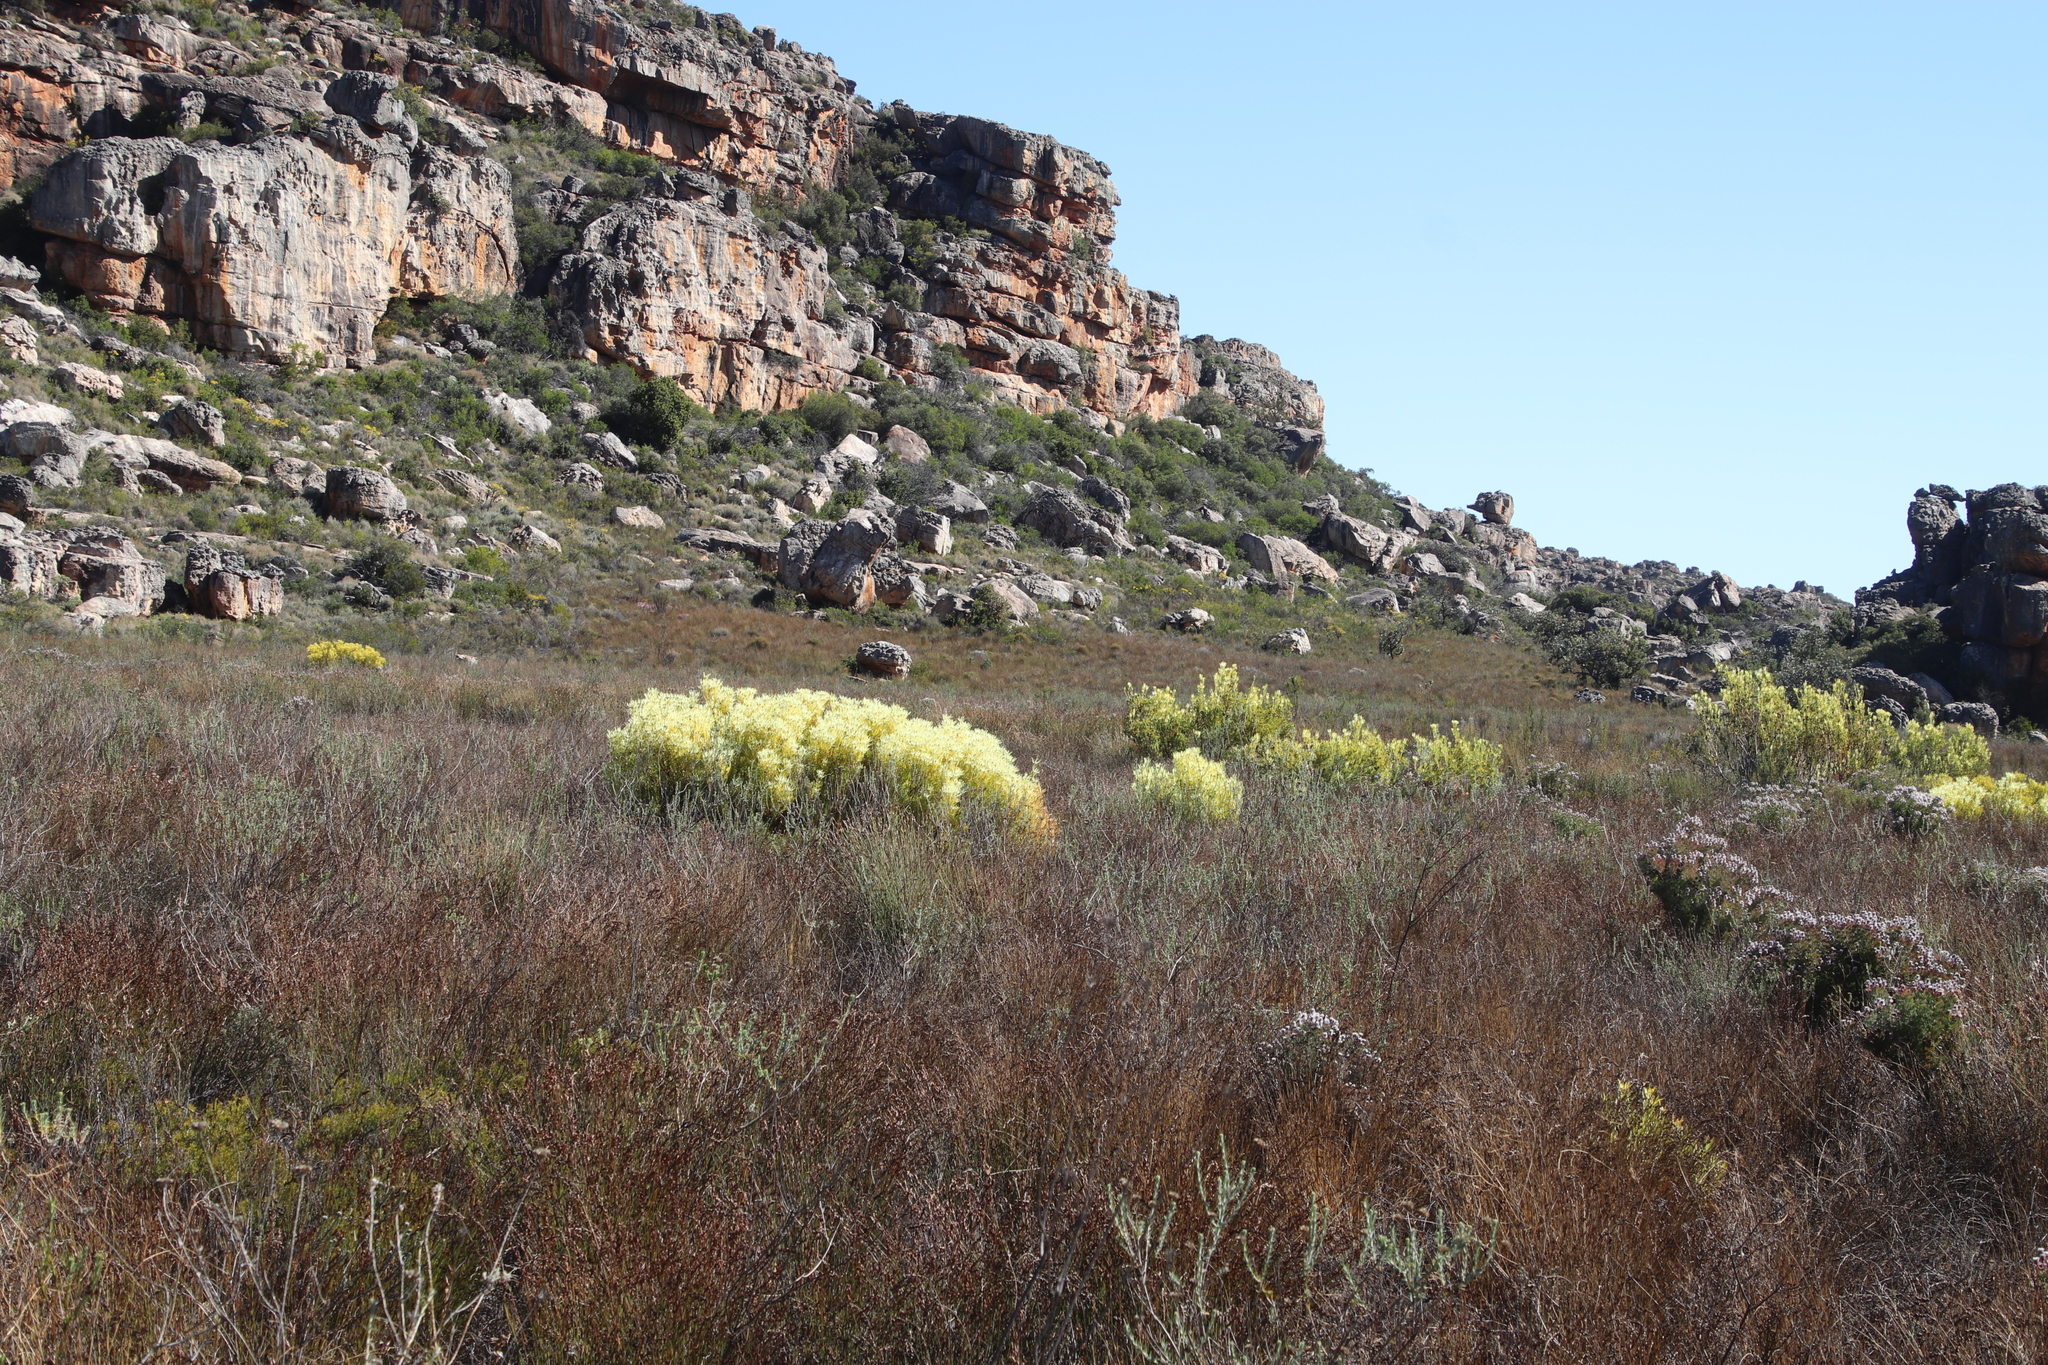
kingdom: Plantae
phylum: Tracheophyta
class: Magnoliopsida
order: Proteales
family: Proteaceae
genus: Leucadendron
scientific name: Leucadendron salignum
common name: Common sunshine conebush
